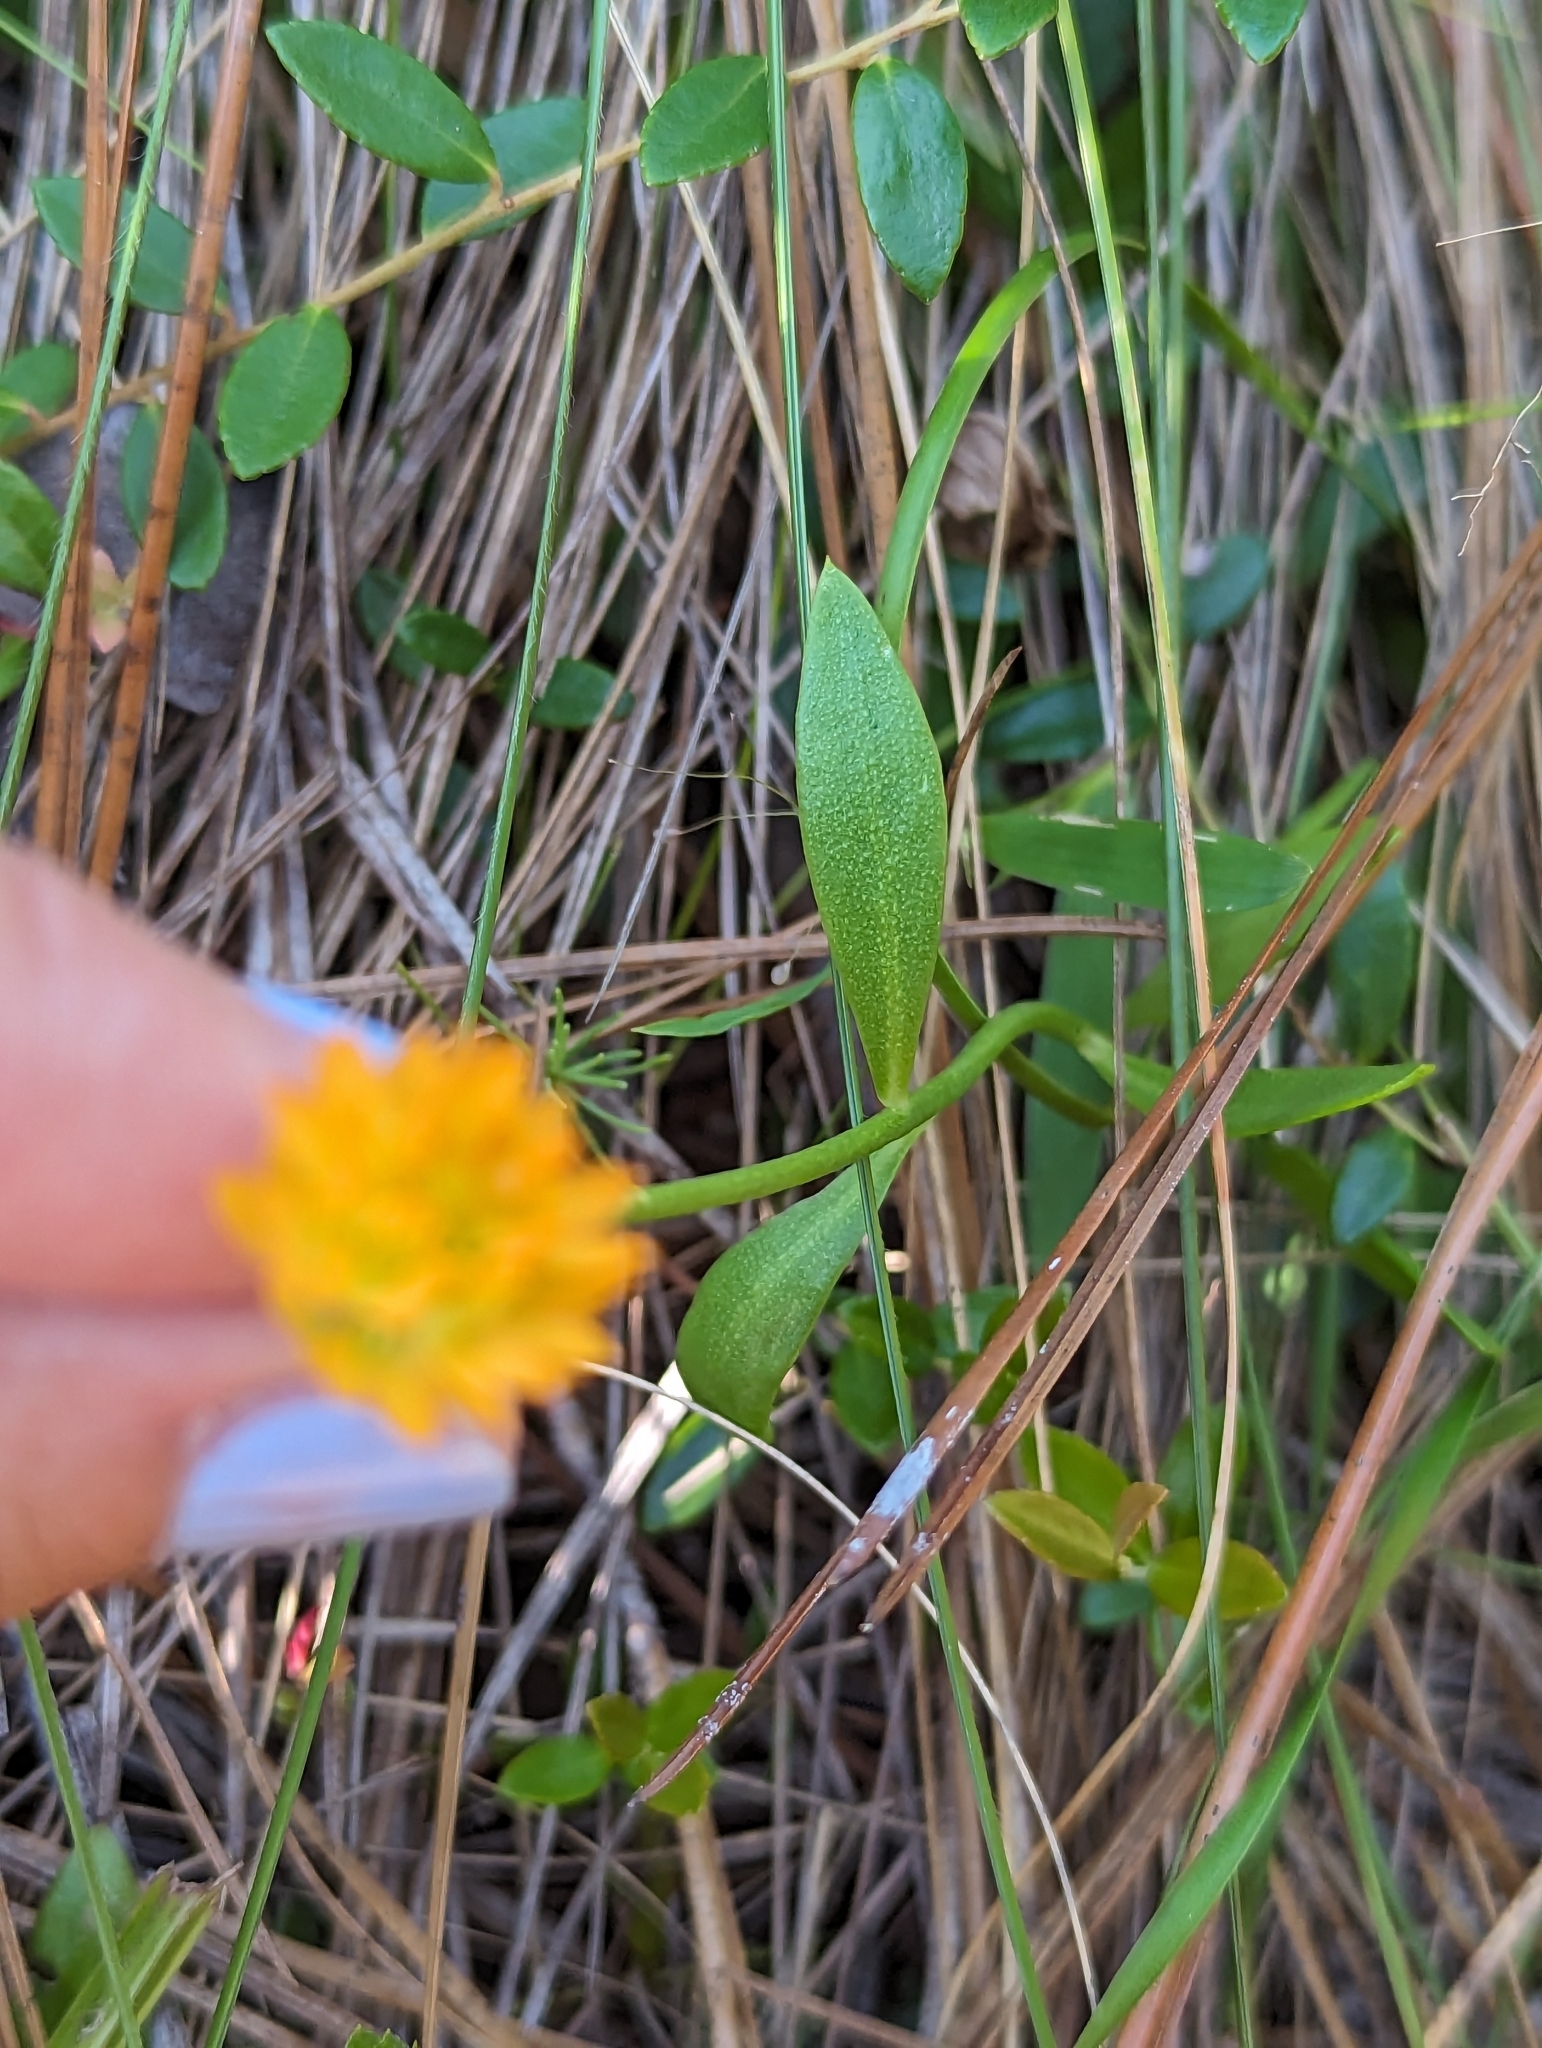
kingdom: Plantae
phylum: Tracheophyta
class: Magnoliopsida
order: Fabales
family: Polygalaceae
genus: Polygala
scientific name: Polygala lutea
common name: Orange milkwort
